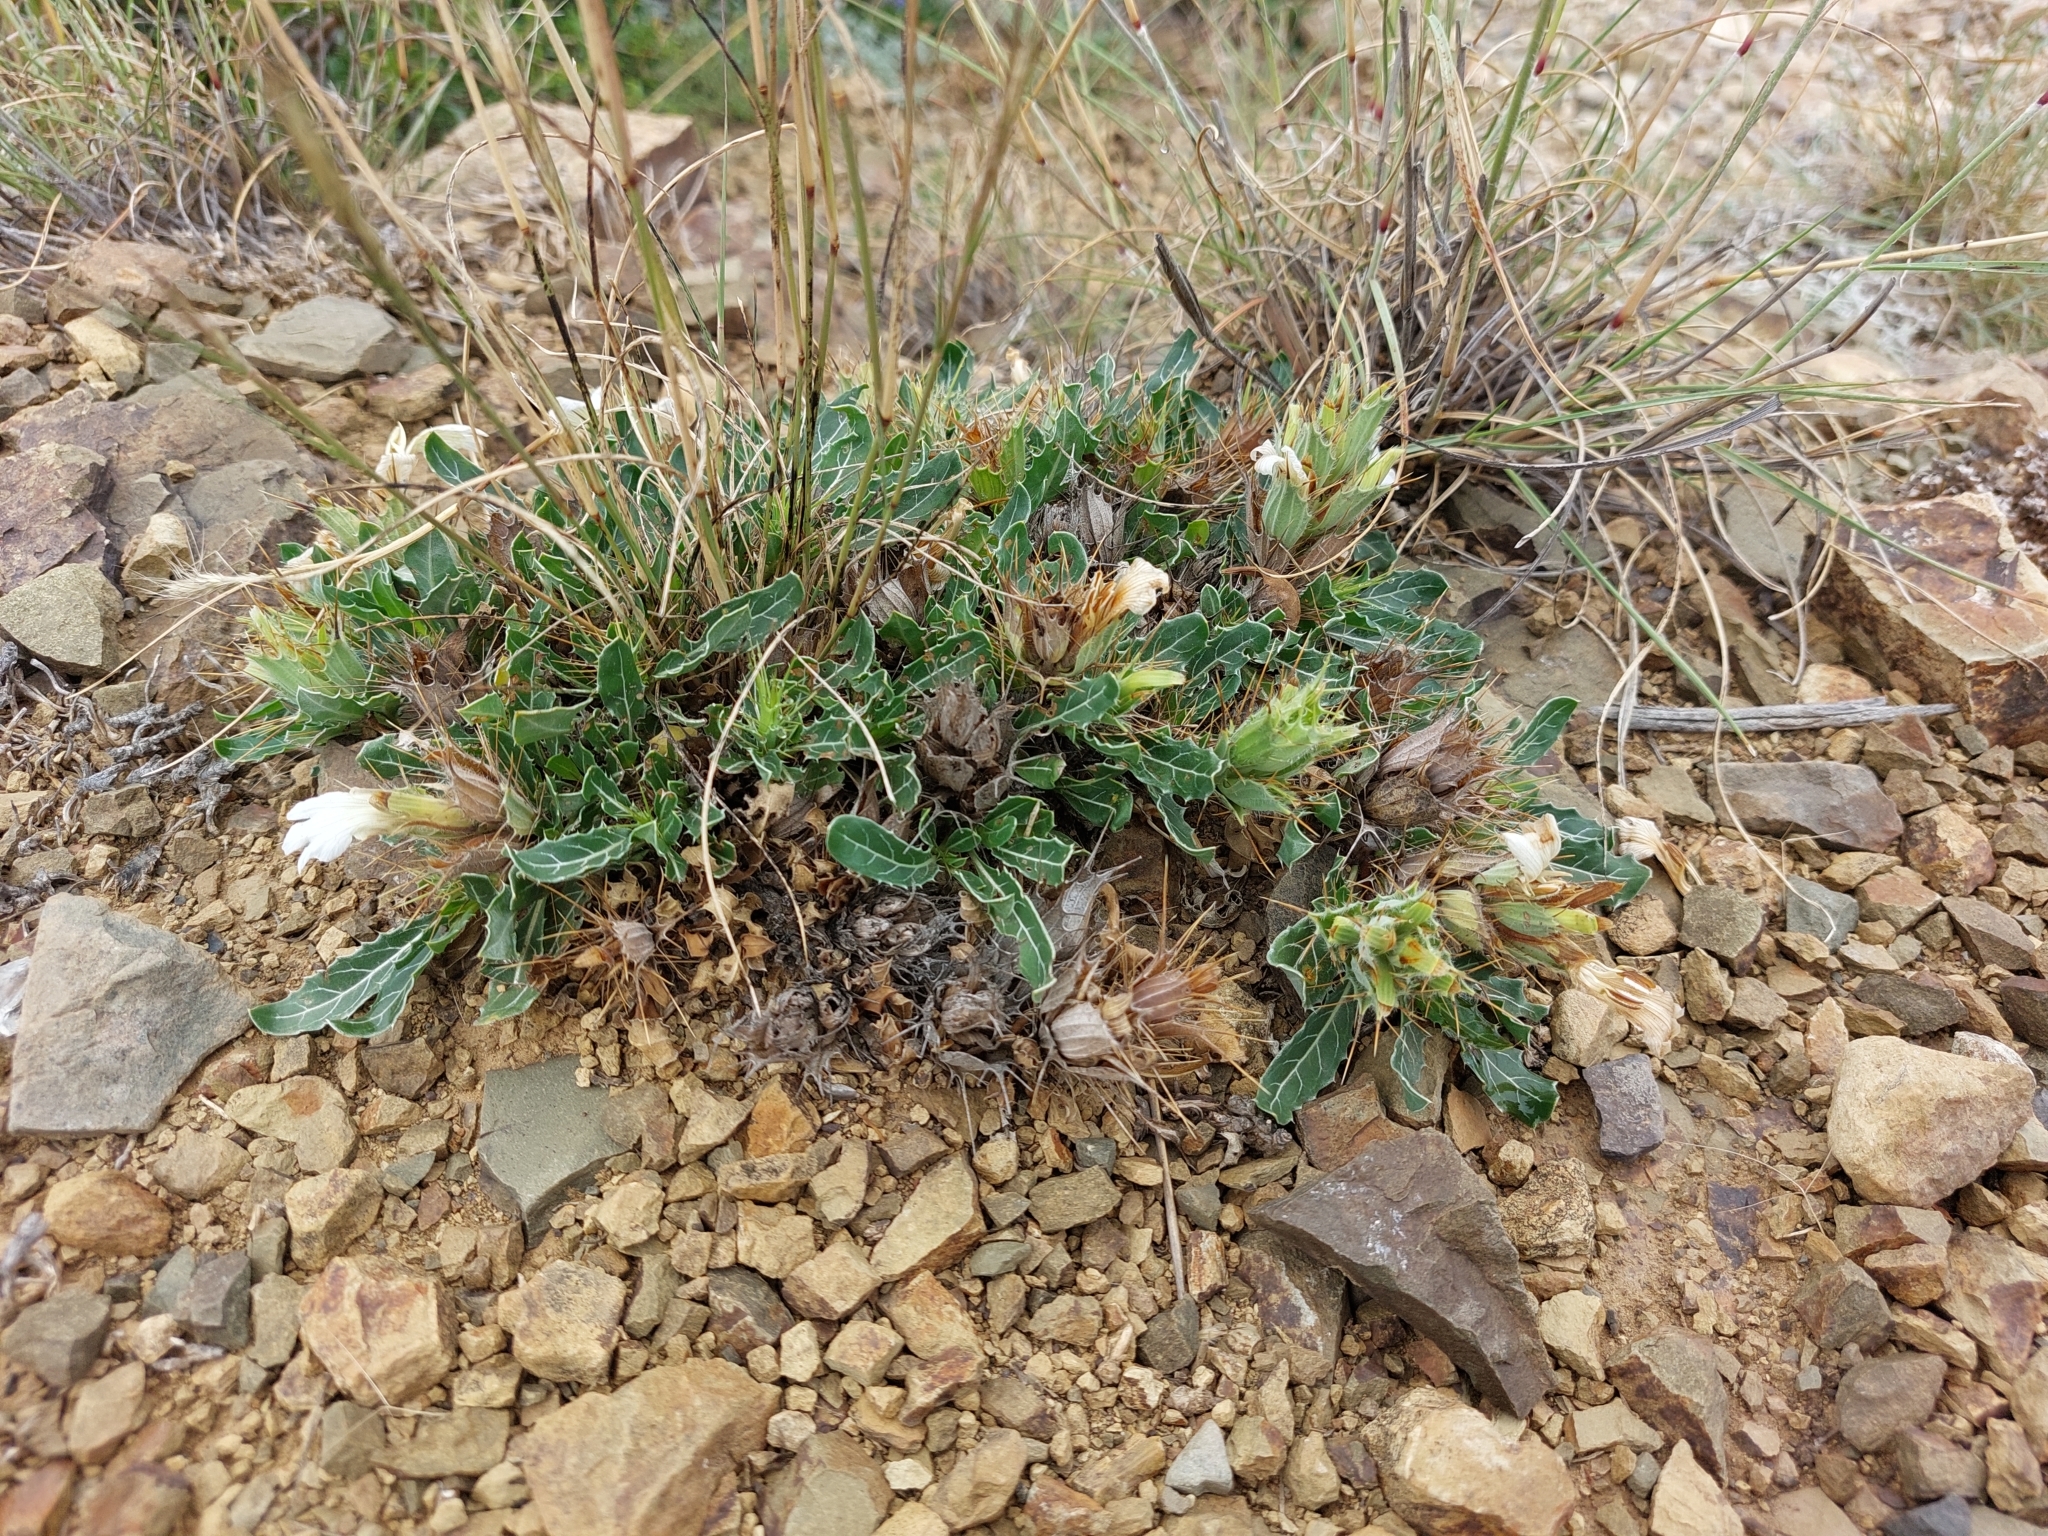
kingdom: Plantae
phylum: Tracheophyta
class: Magnoliopsida
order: Lamiales
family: Acanthaceae
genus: Blepharis
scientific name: Blepharis mitrata
